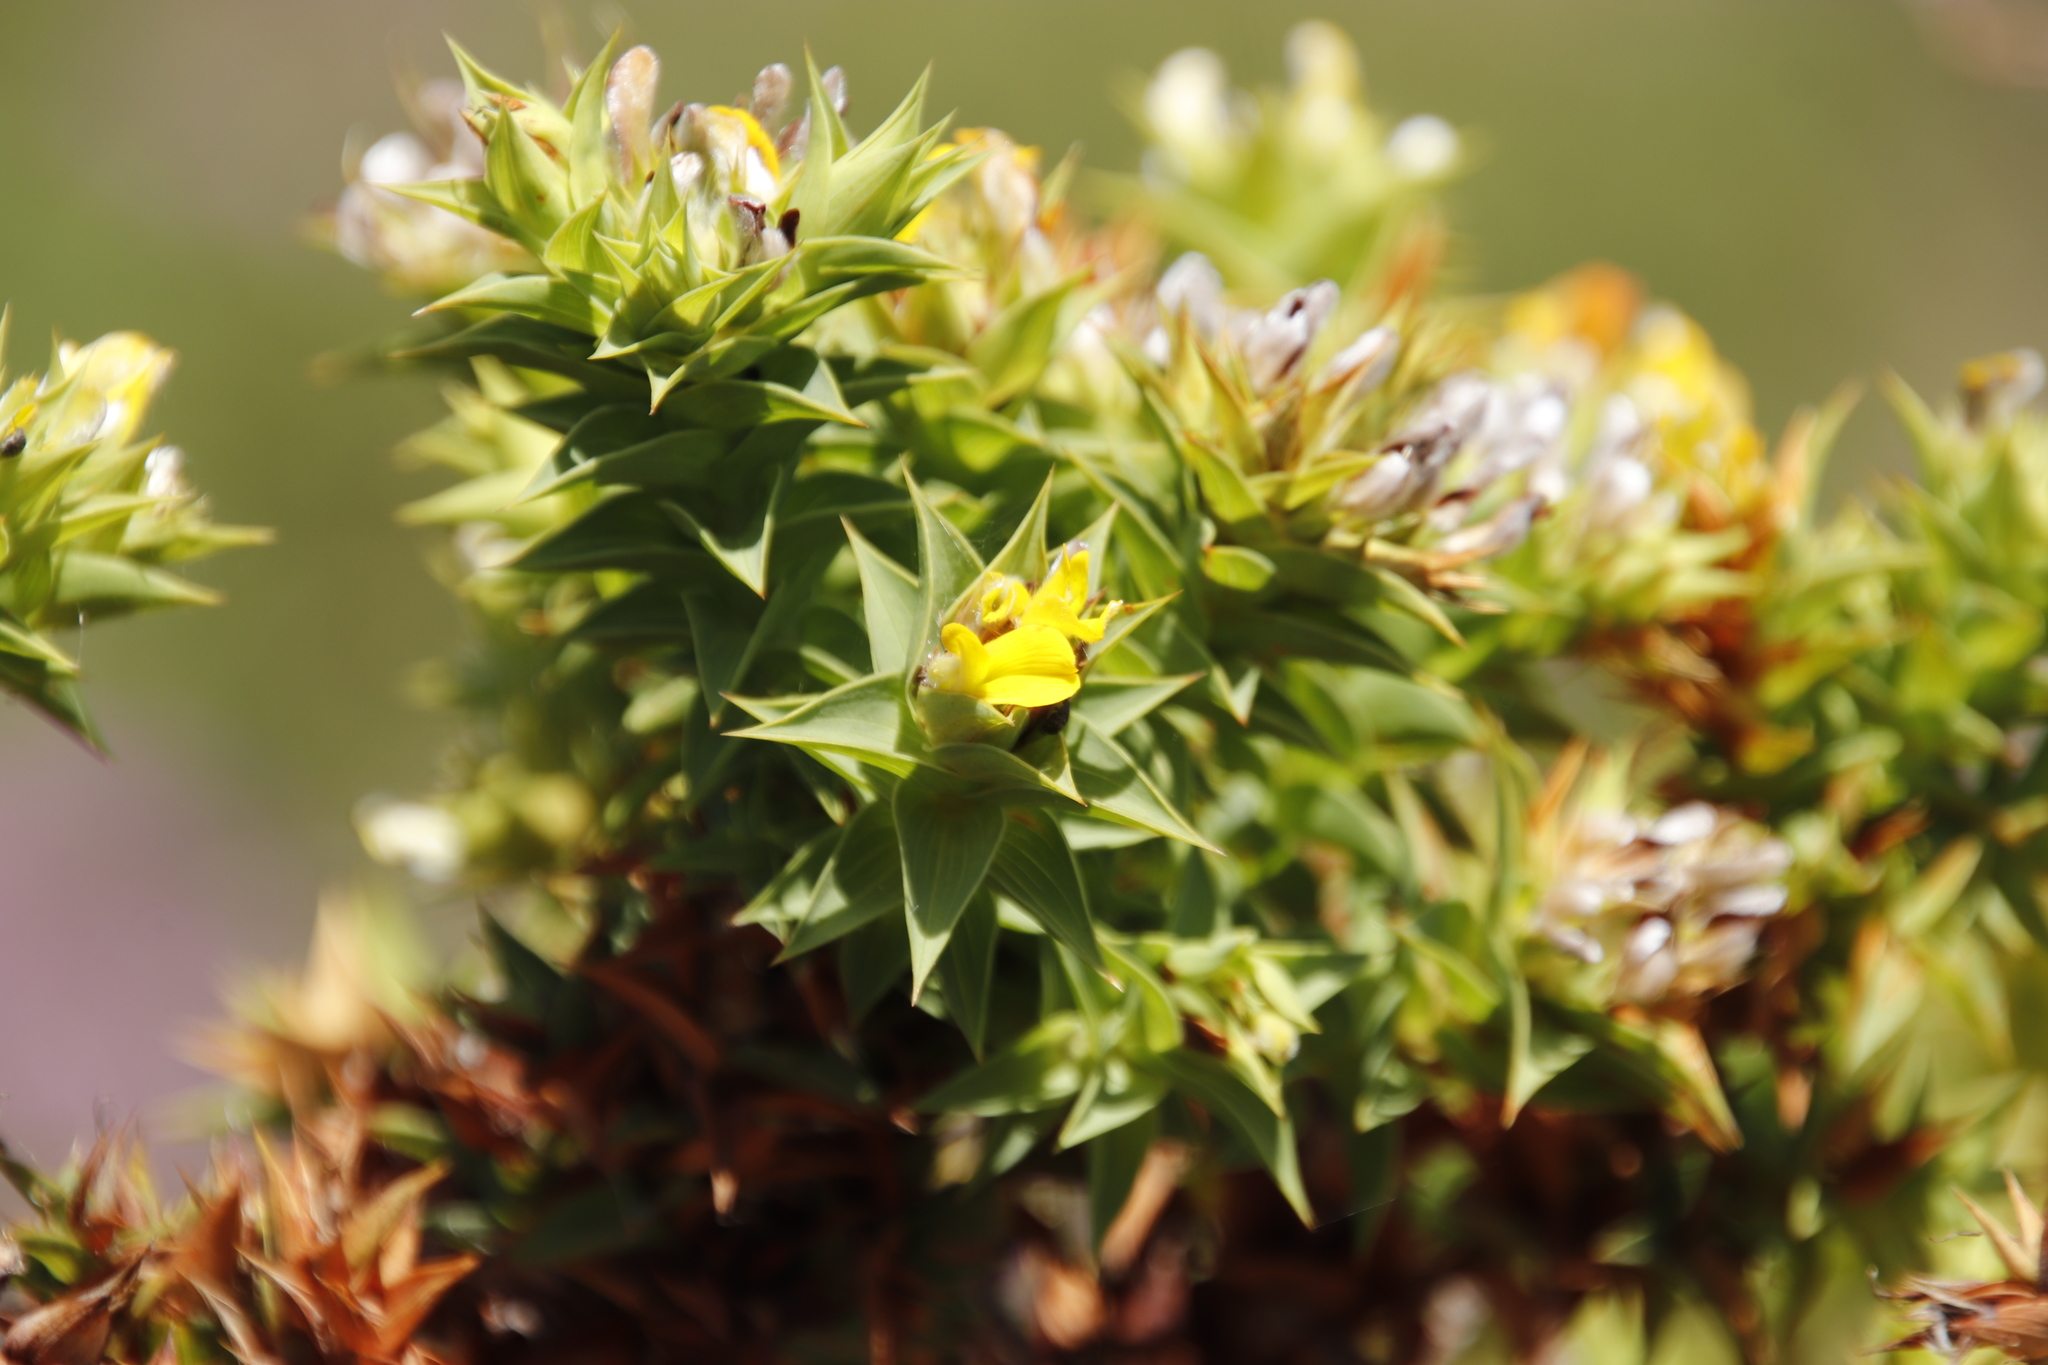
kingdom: Plantae
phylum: Tracheophyta
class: Magnoliopsida
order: Fabales
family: Fabaceae
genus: Aspalathus
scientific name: Aspalathus cordata
